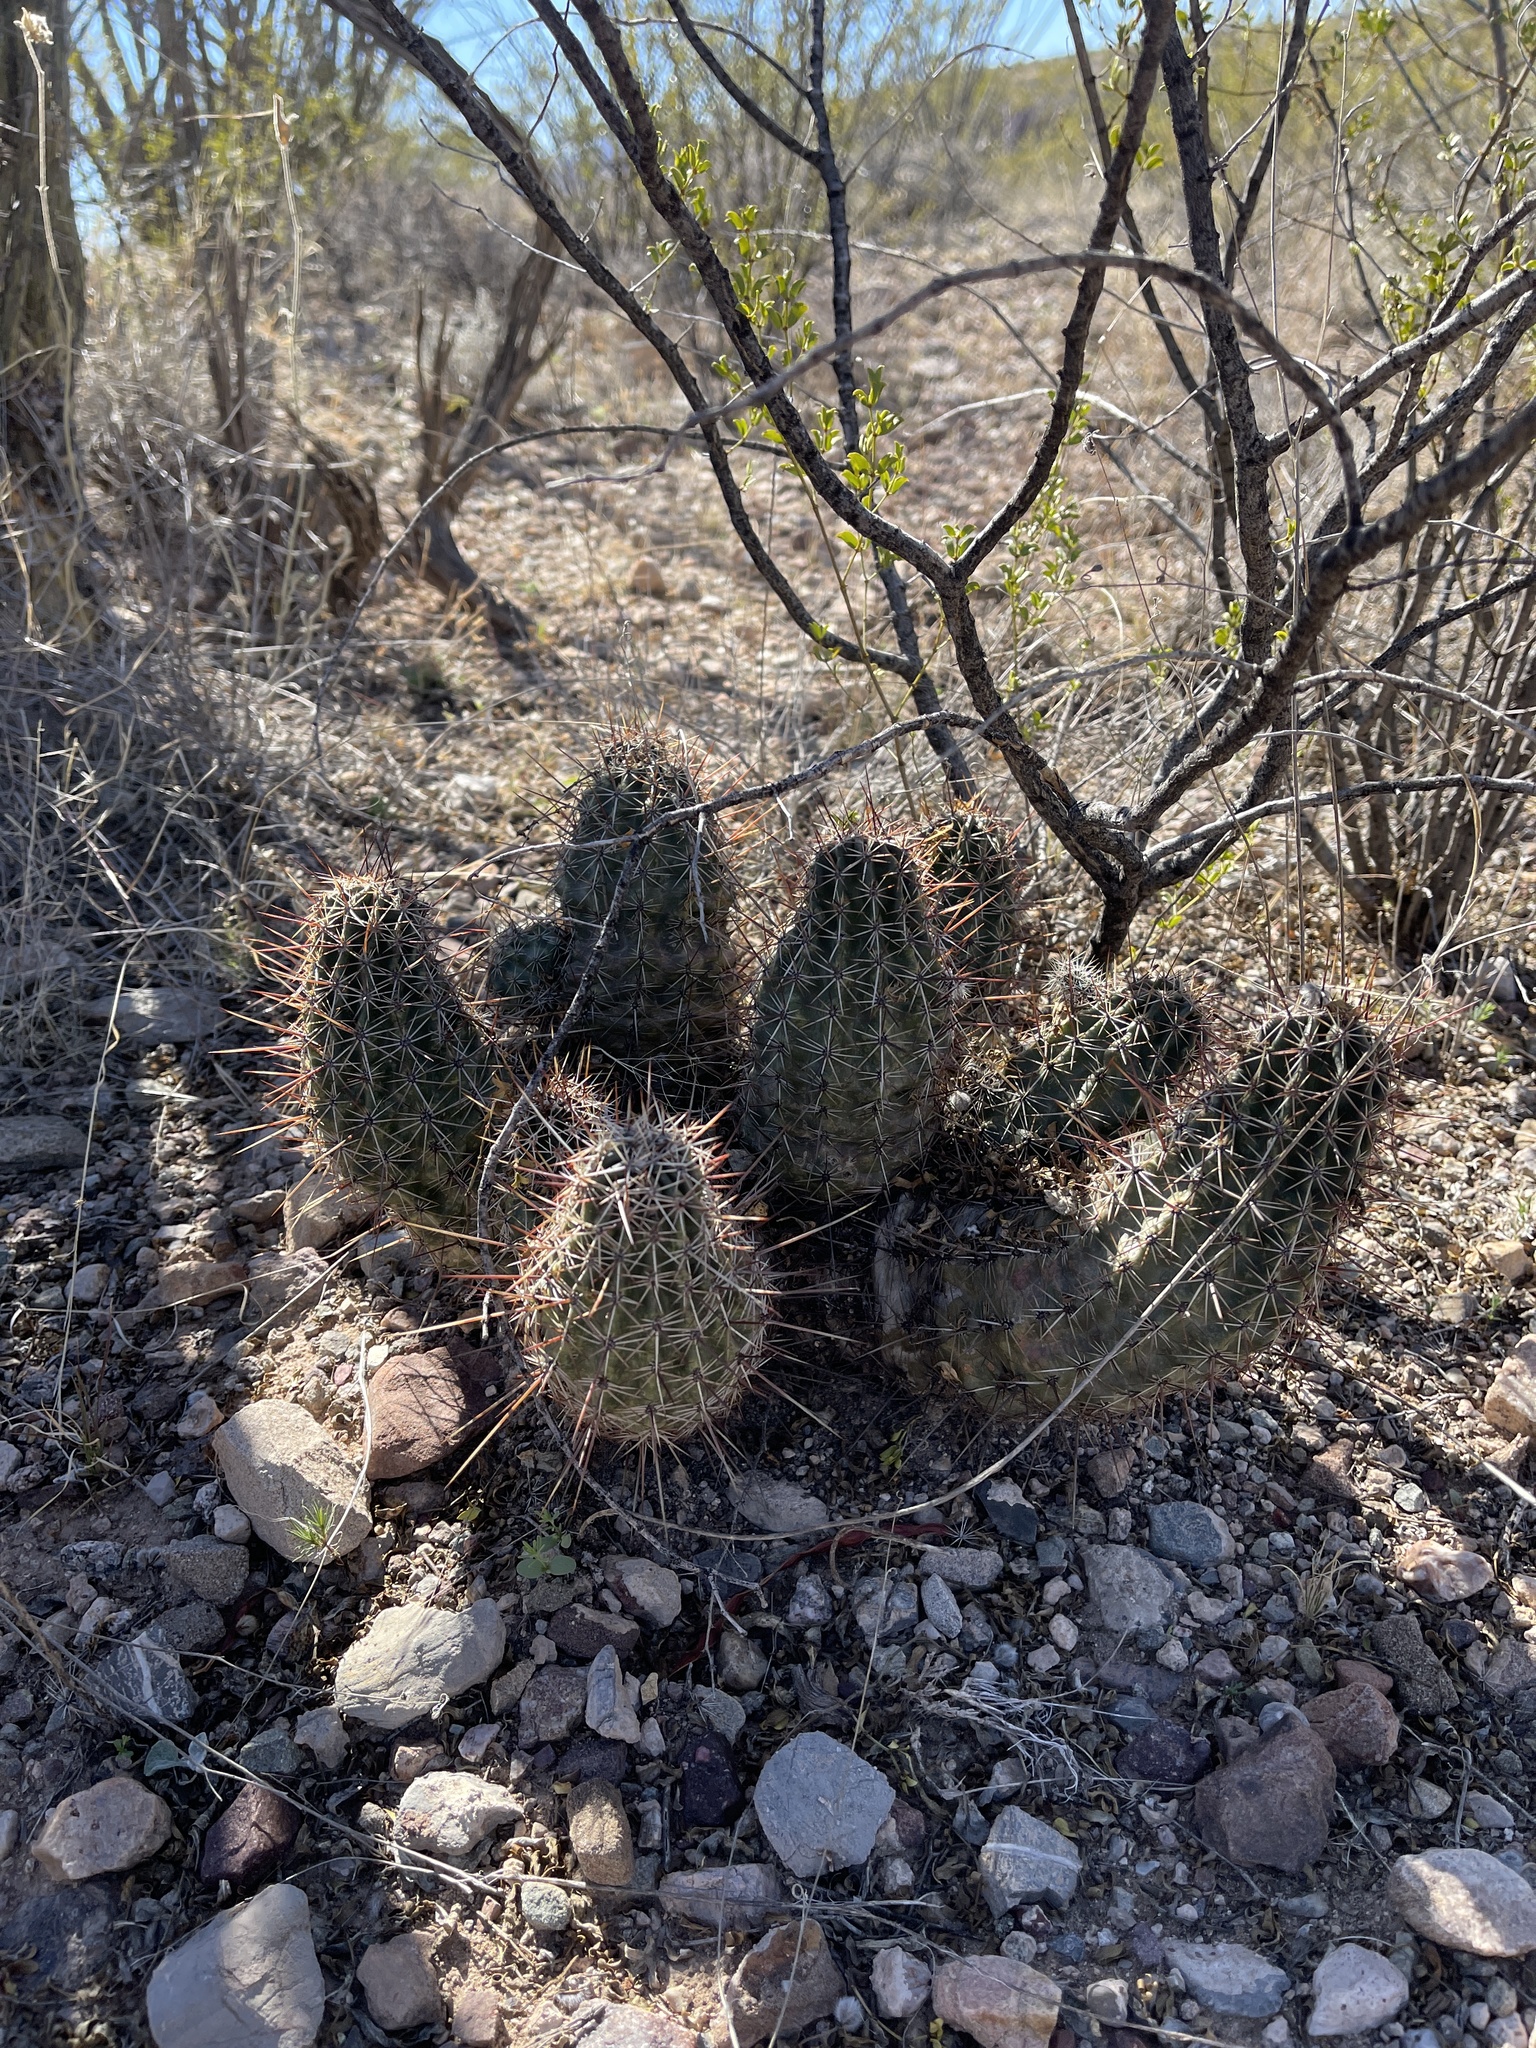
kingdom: Plantae
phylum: Tracheophyta
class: Magnoliopsida
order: Caryophyllales
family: Cactaceae
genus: Echinocereus
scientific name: Echinocereus fasciculatus
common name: Bundle hedgehog
